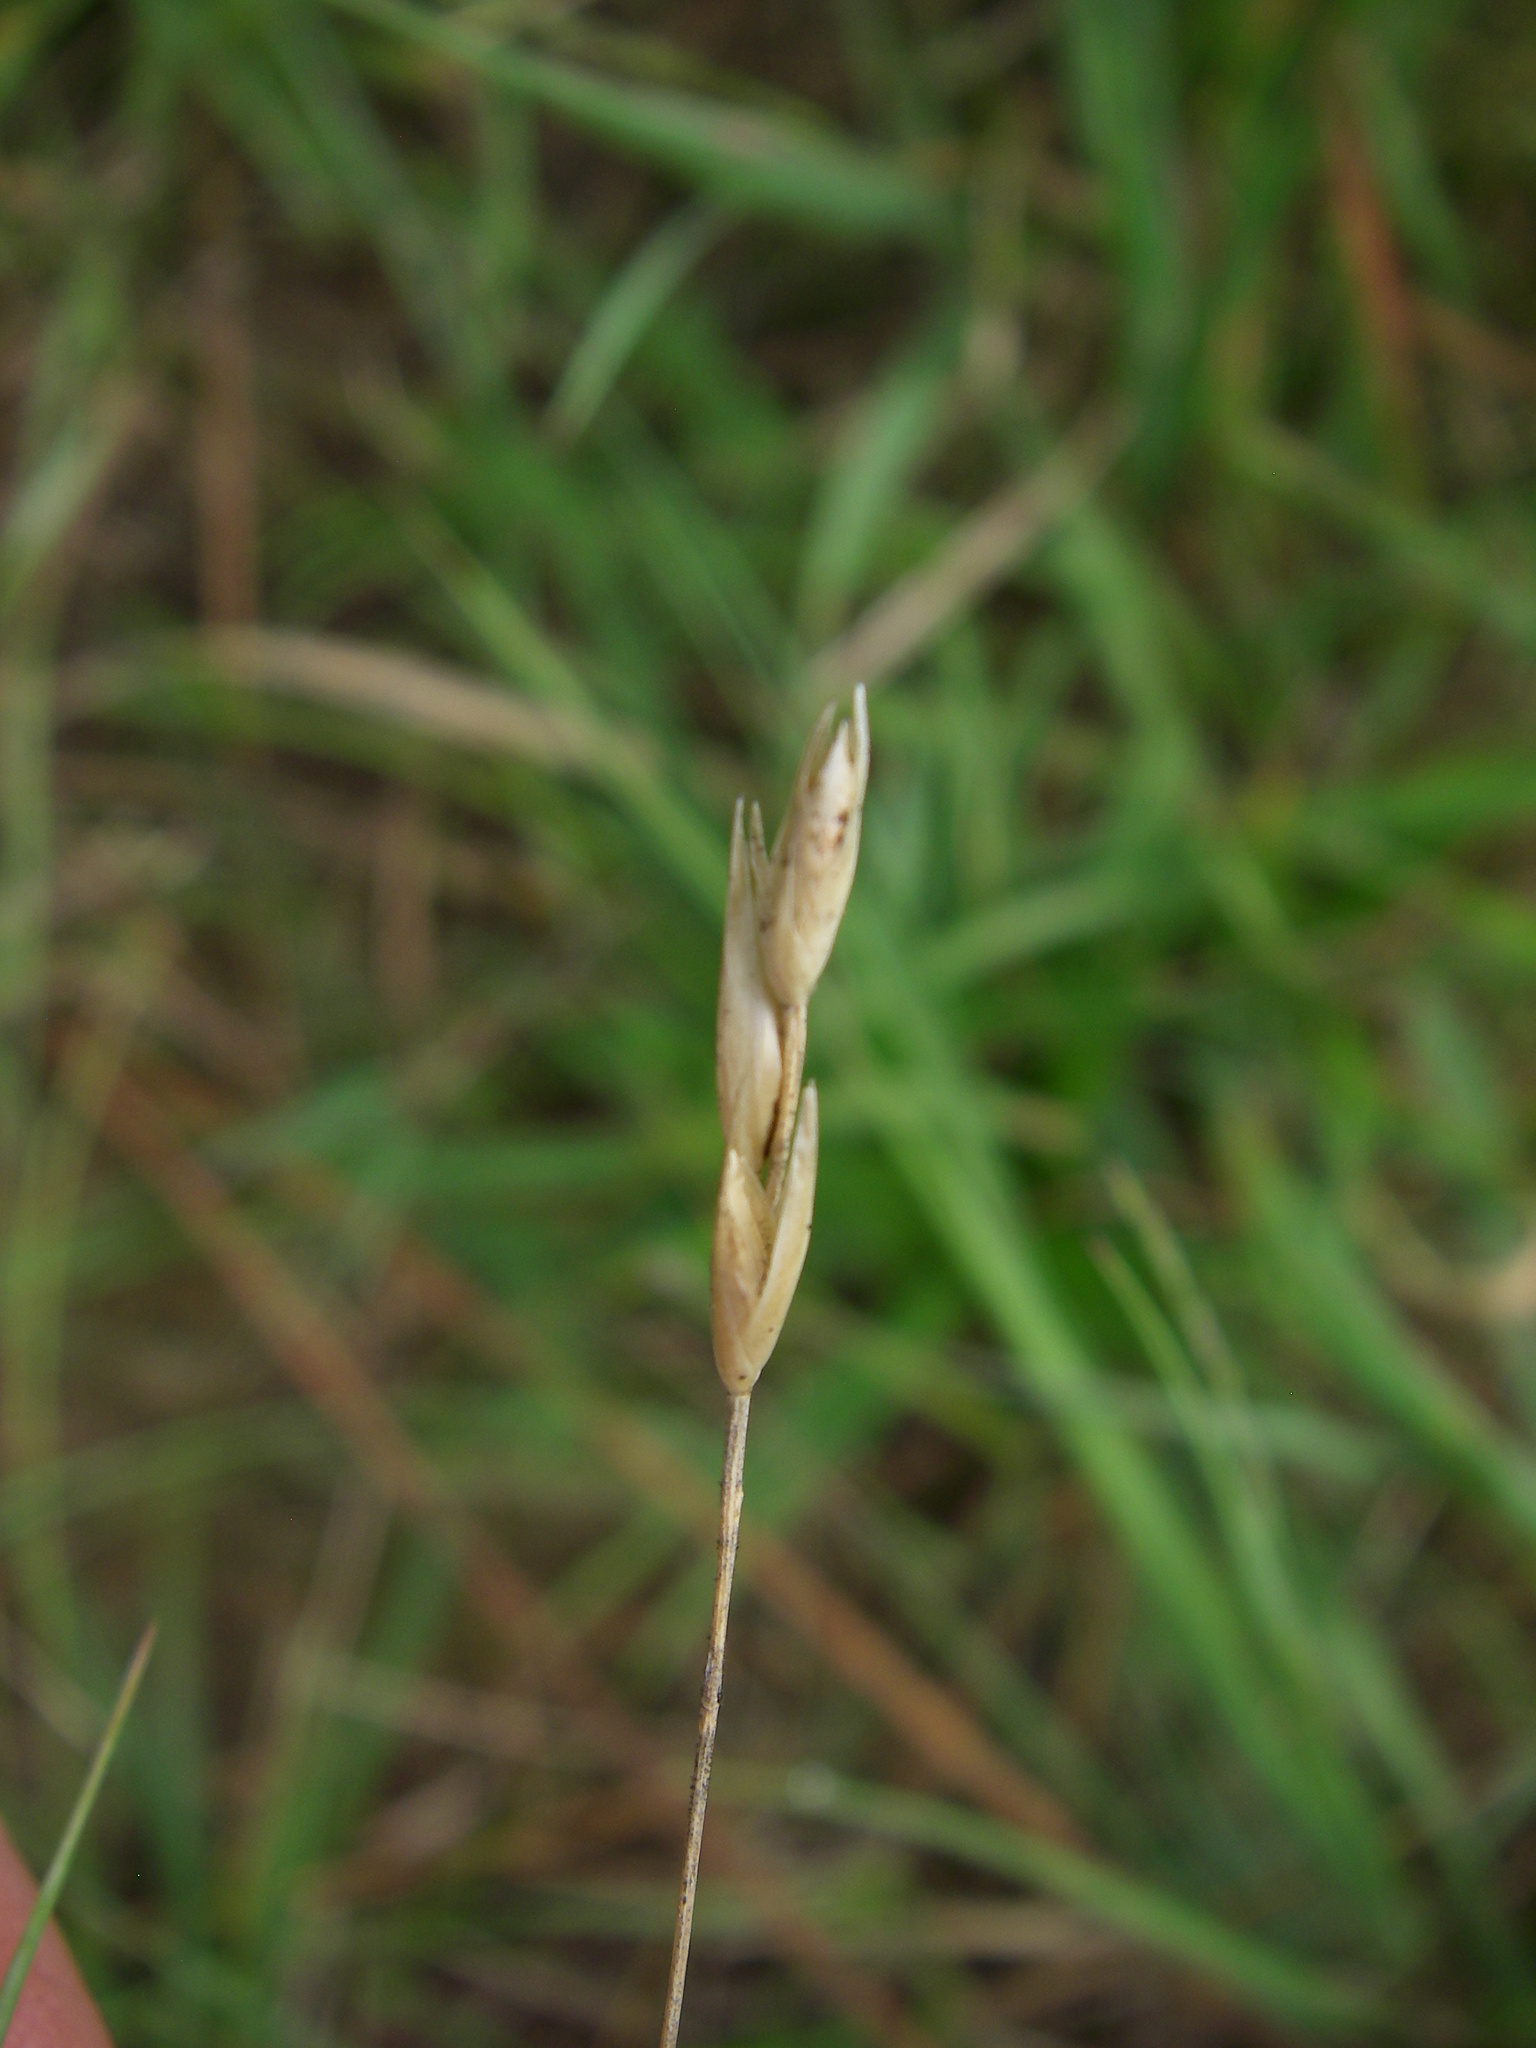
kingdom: Plantae
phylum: Tracheophyta
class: Liliopsida
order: Poales
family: Poaceae
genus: Danthonia
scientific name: Danthonia decumbens
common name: Common heathgrass
